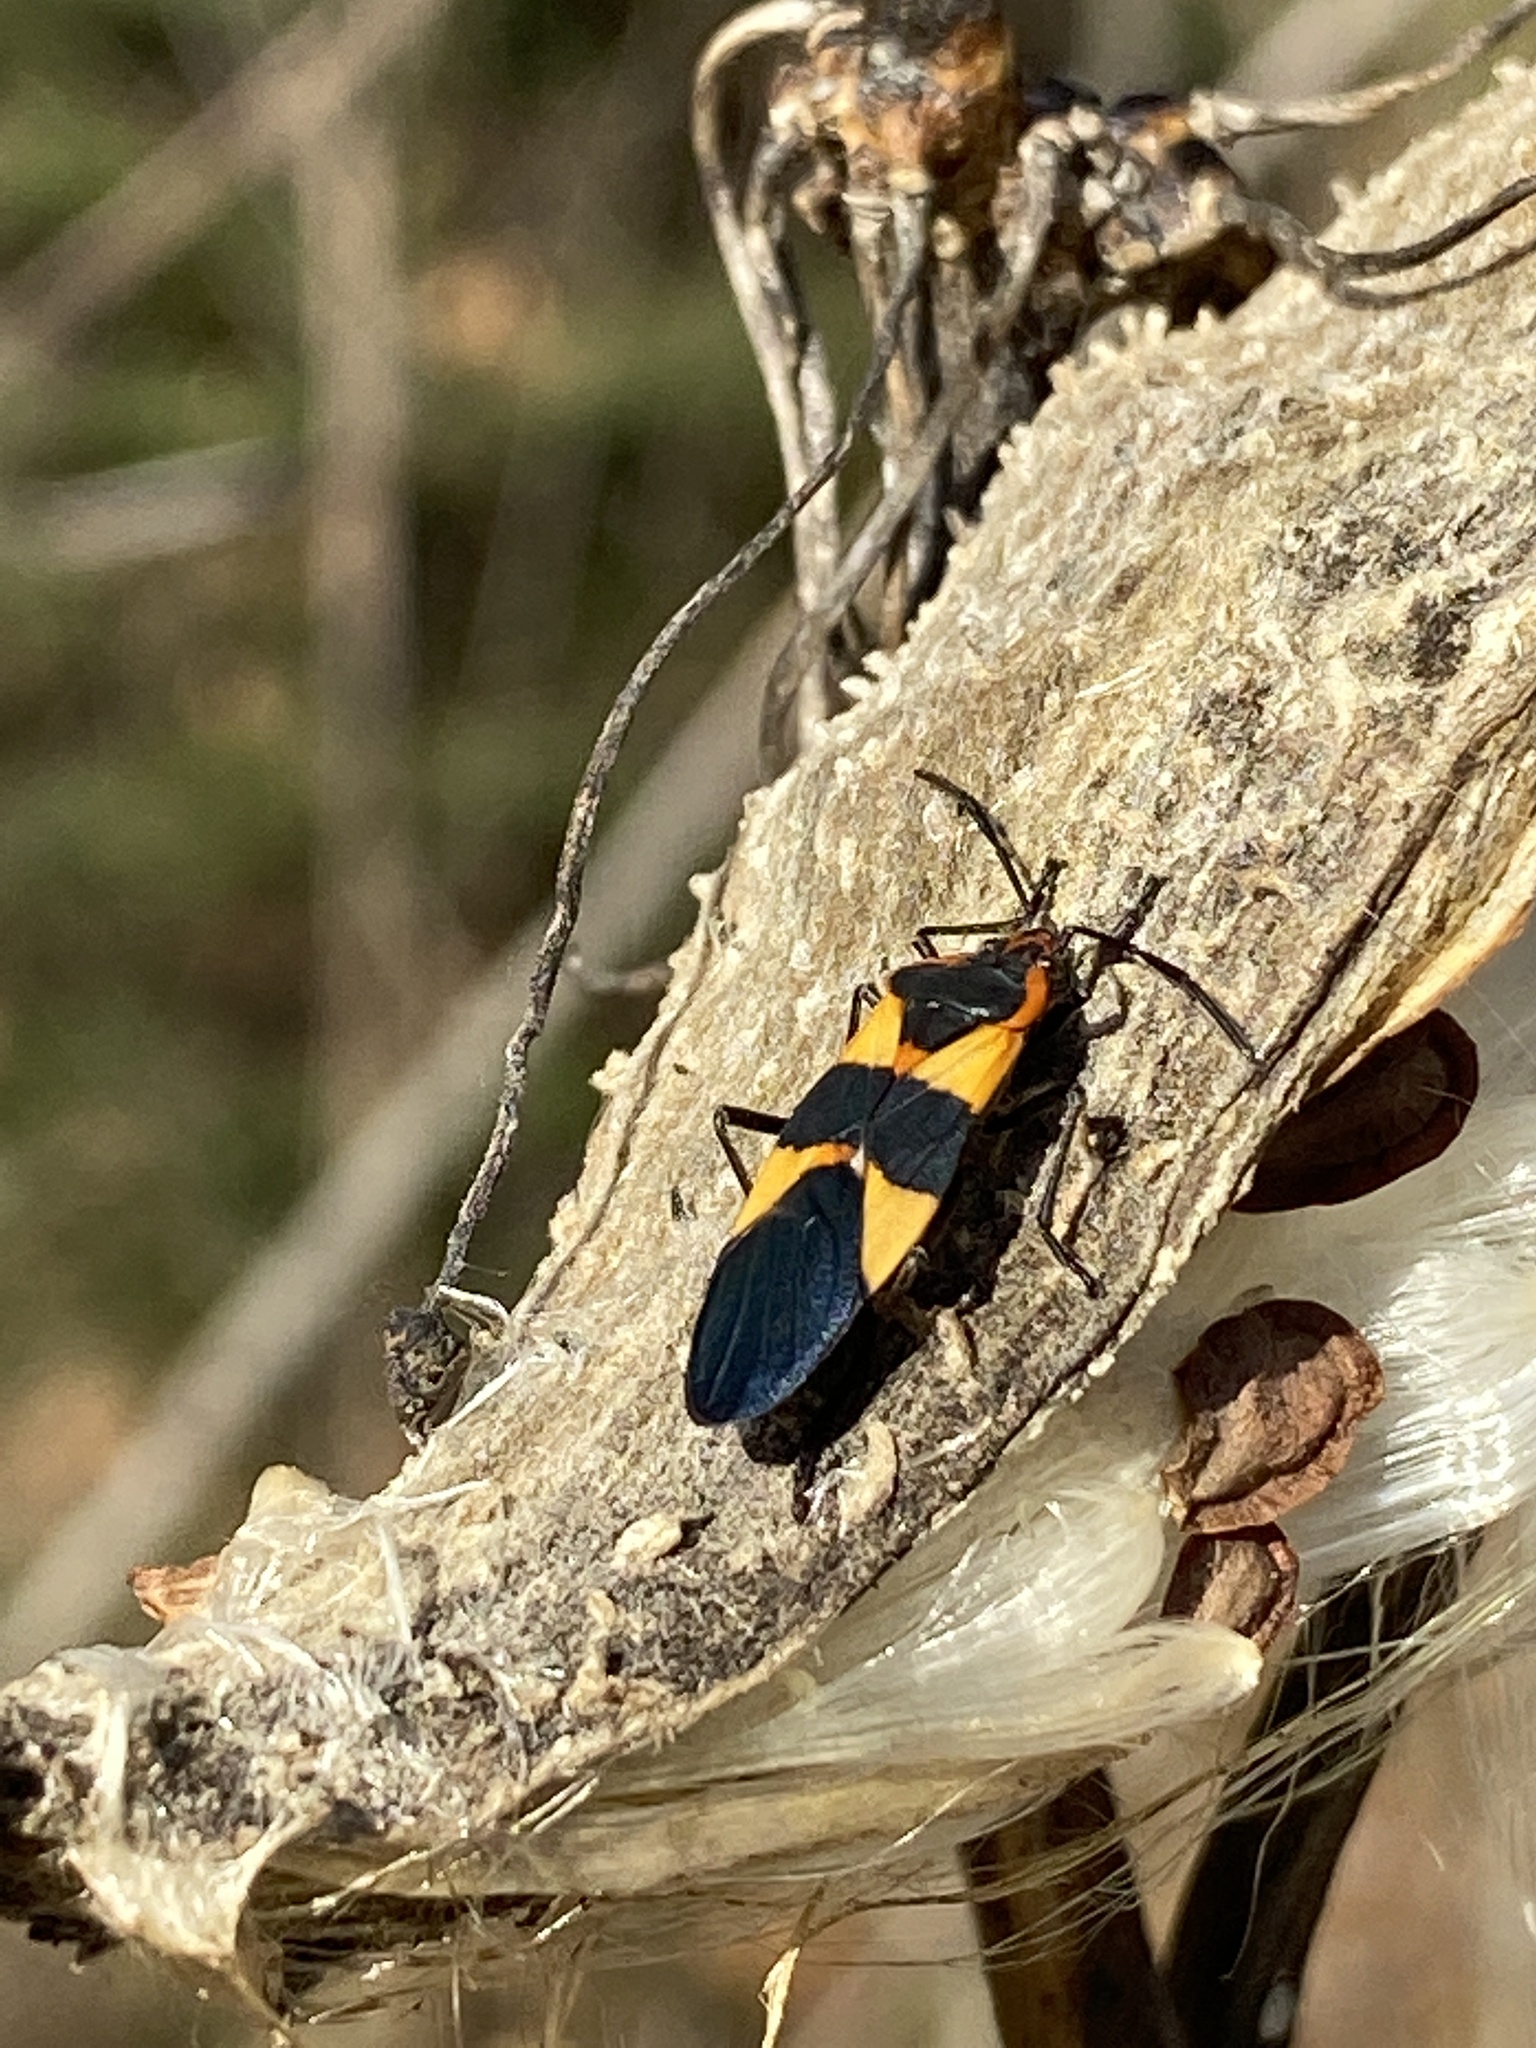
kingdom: Animalia
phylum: Arthropoda
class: Insecta
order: Hemiptera
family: Lygaeidae
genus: Oncopeltus
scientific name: Oncopeltus fasciatus
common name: Large milkweed bug
